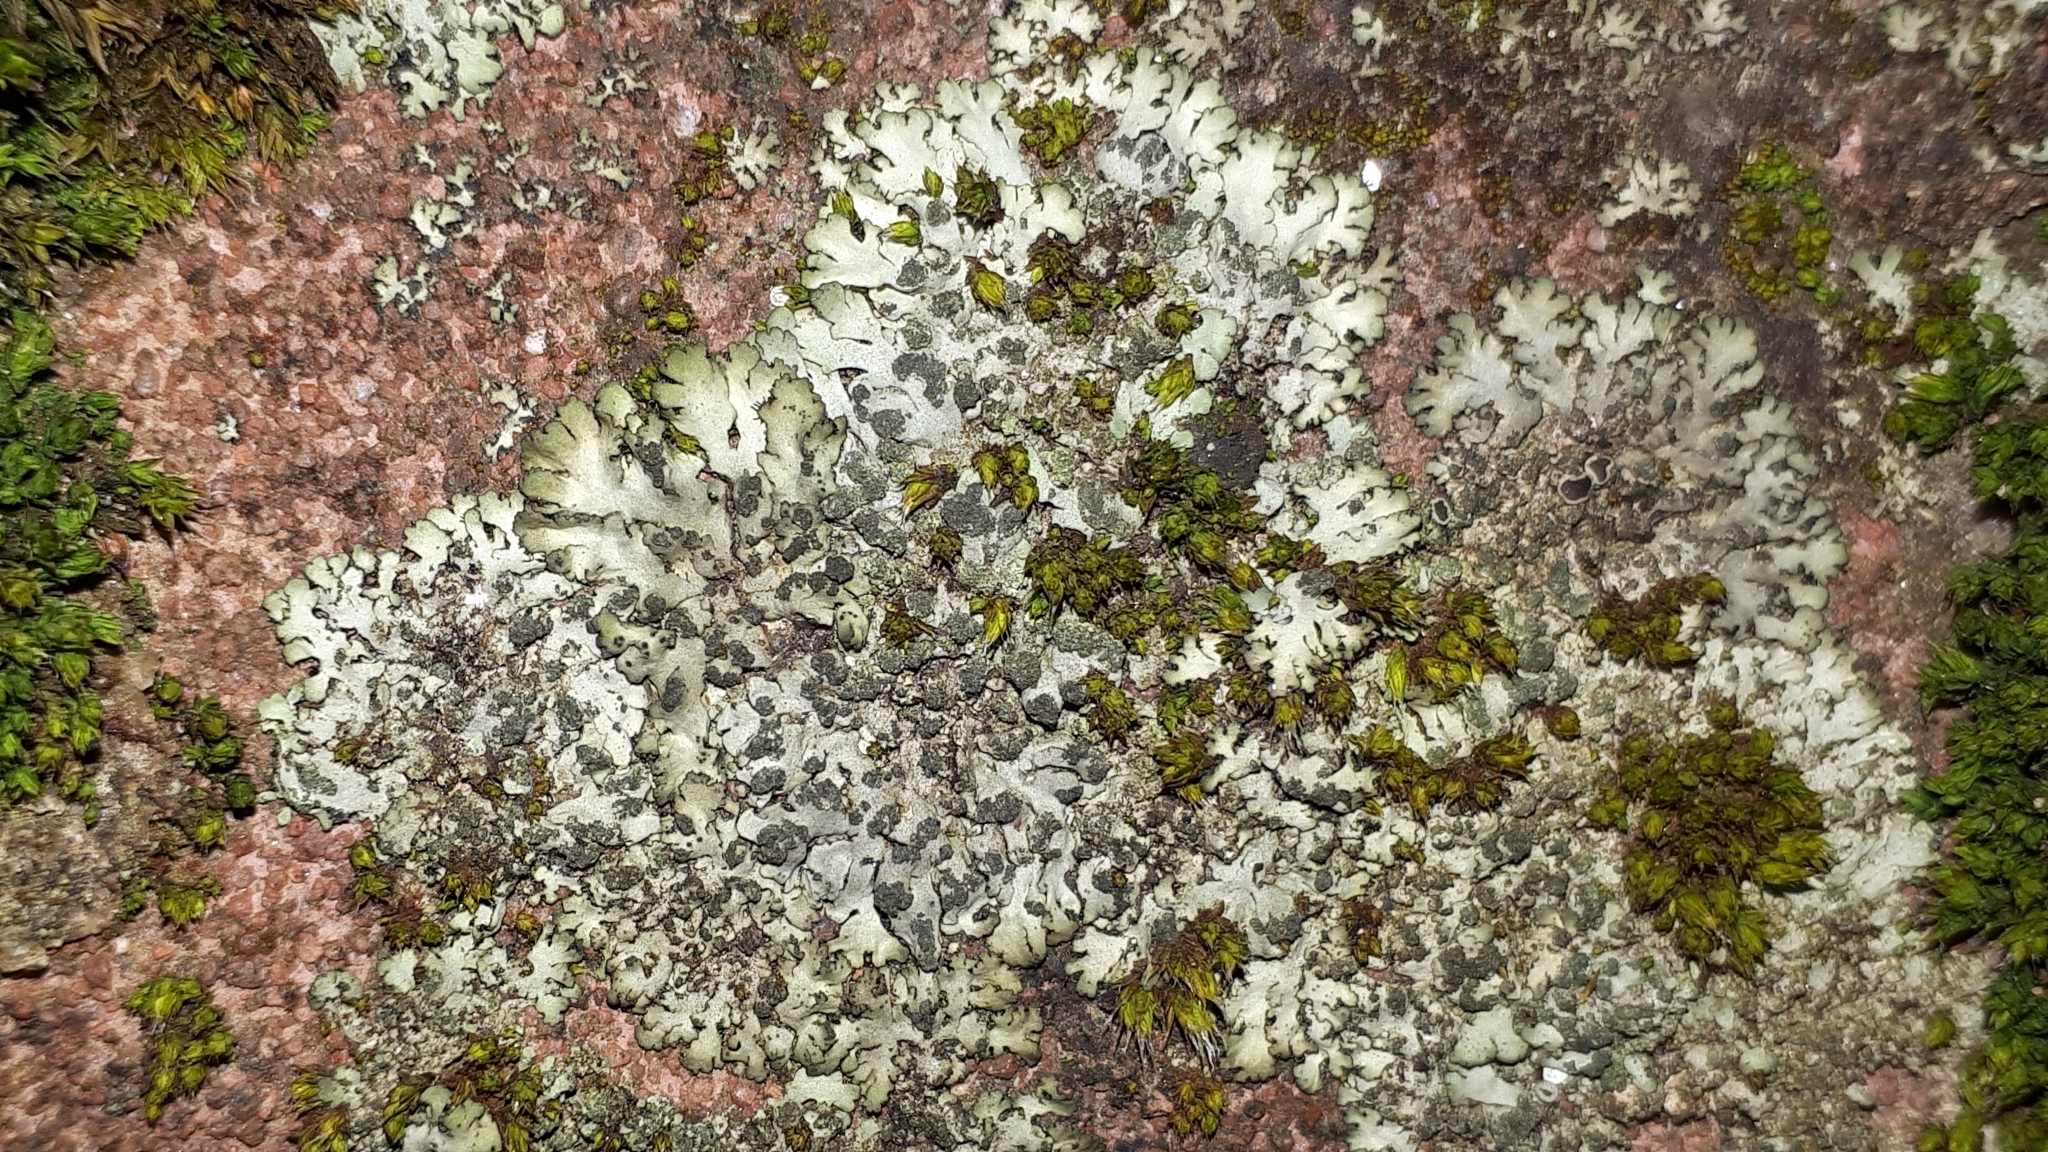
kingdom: Fungi
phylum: Ascomycota
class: Lecanoromycetes
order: Caliciales
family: Physciaceae
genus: Phaeophyscia
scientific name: Phaeophyscia orbicularis
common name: Mealy shadow lichen
